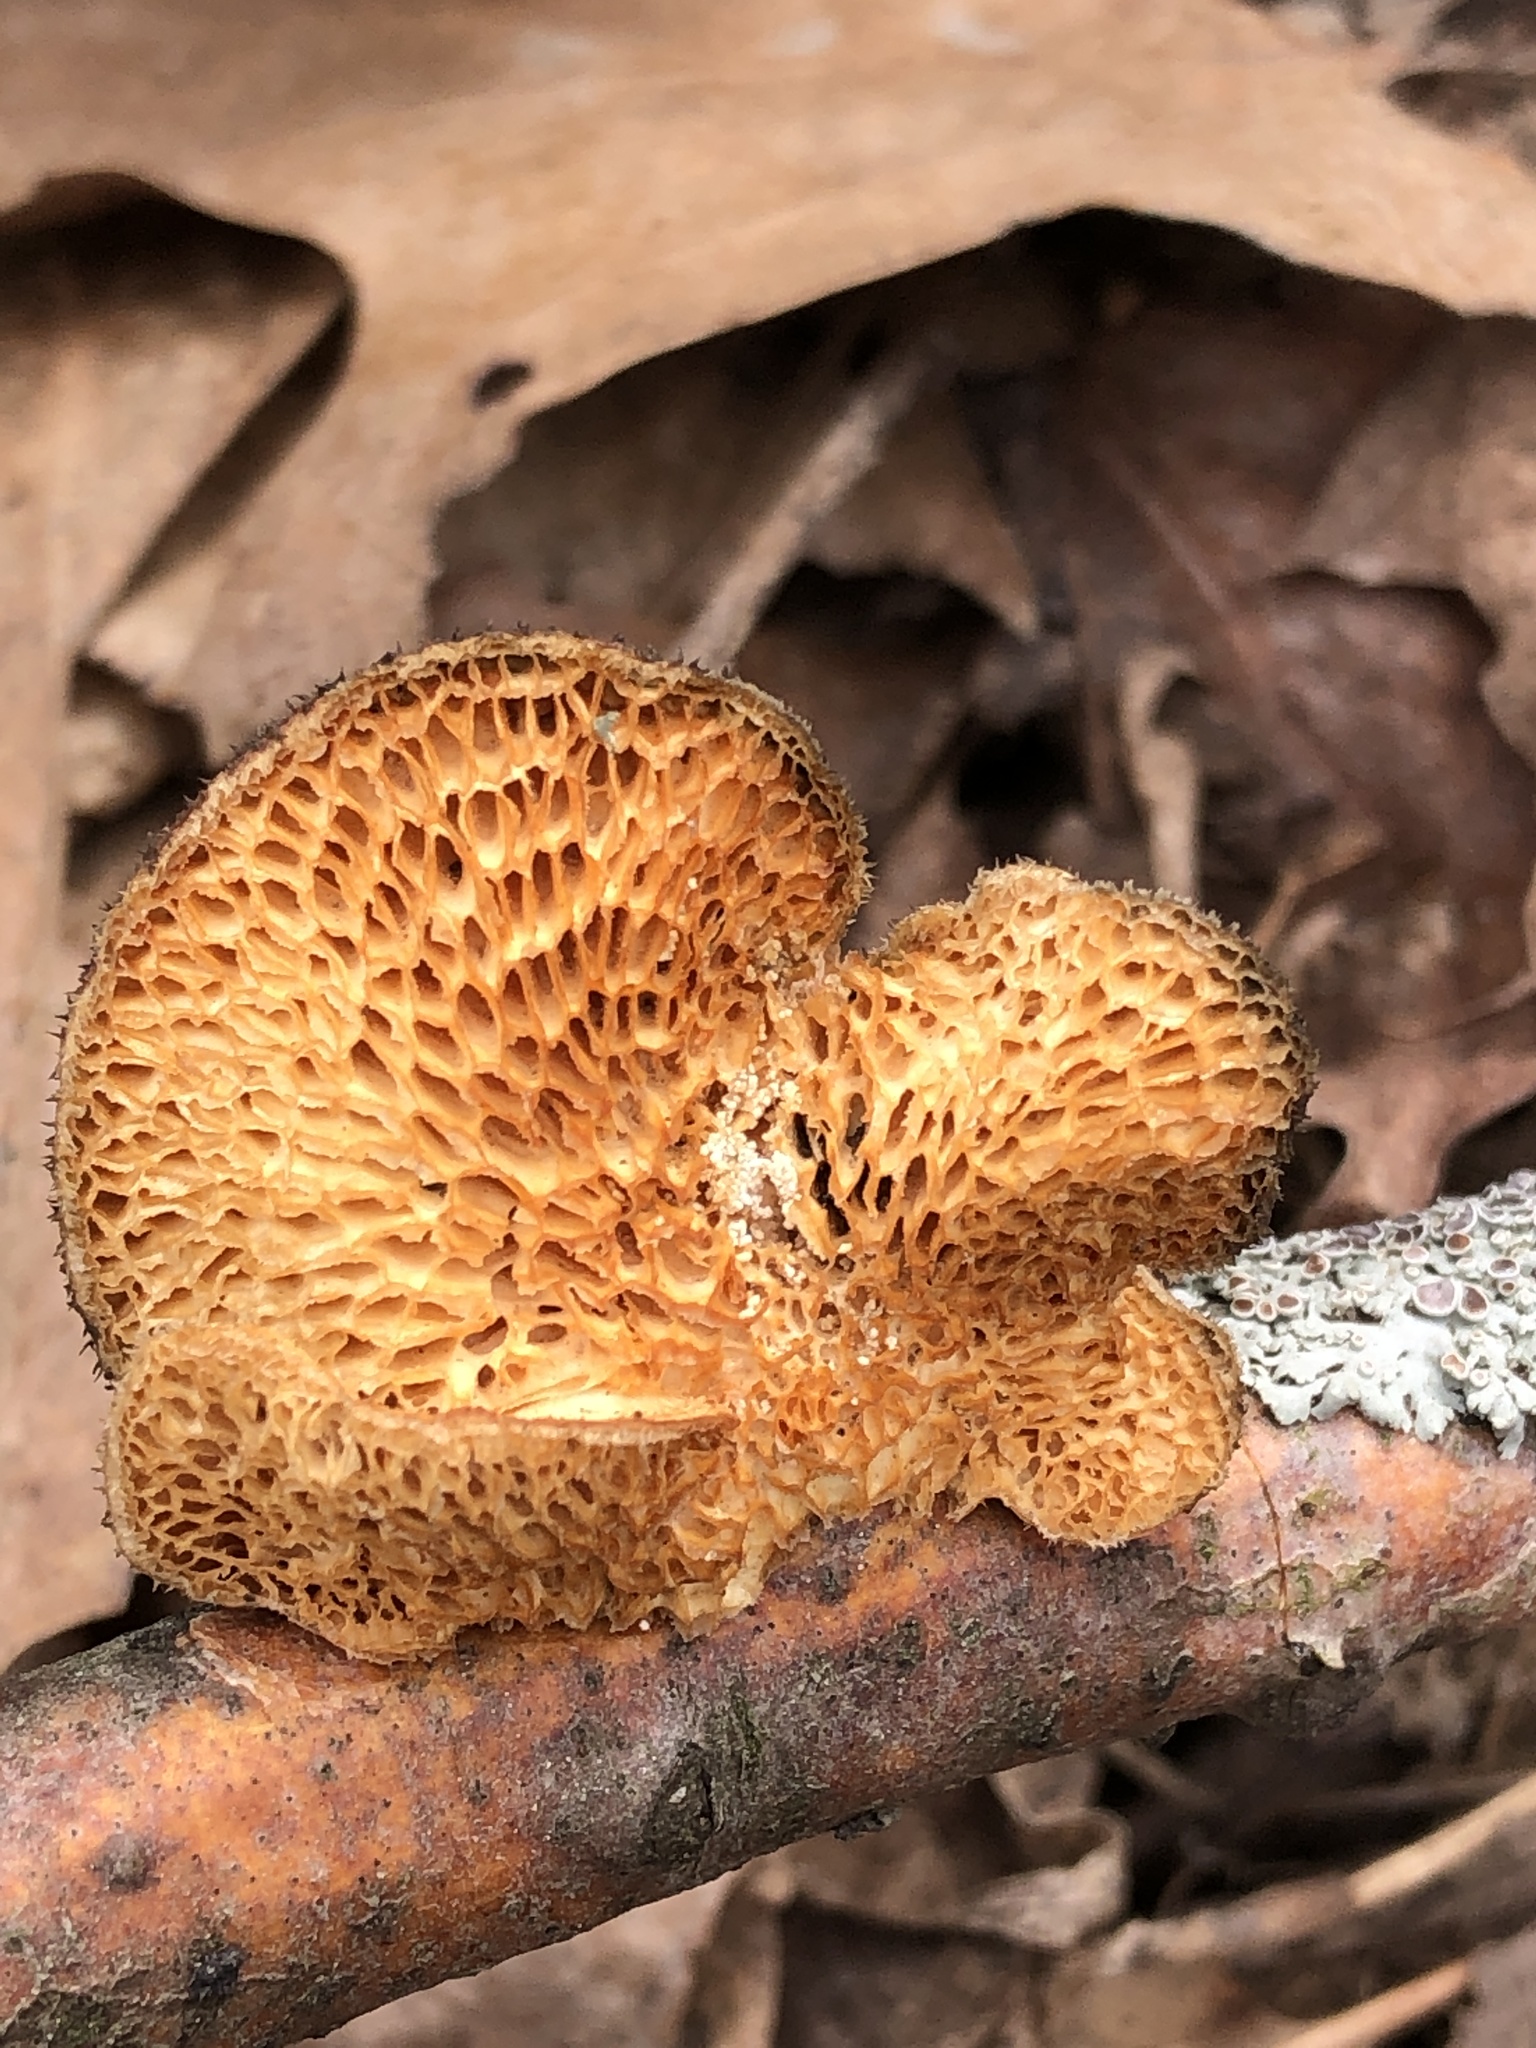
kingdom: Fungi
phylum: Basidiomycota
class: Agaricomycetes
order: Polyporales
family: Polyporaceae
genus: Neofavolus
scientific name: Neofavolus alveolaris
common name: Hexagonal-pored polypore
